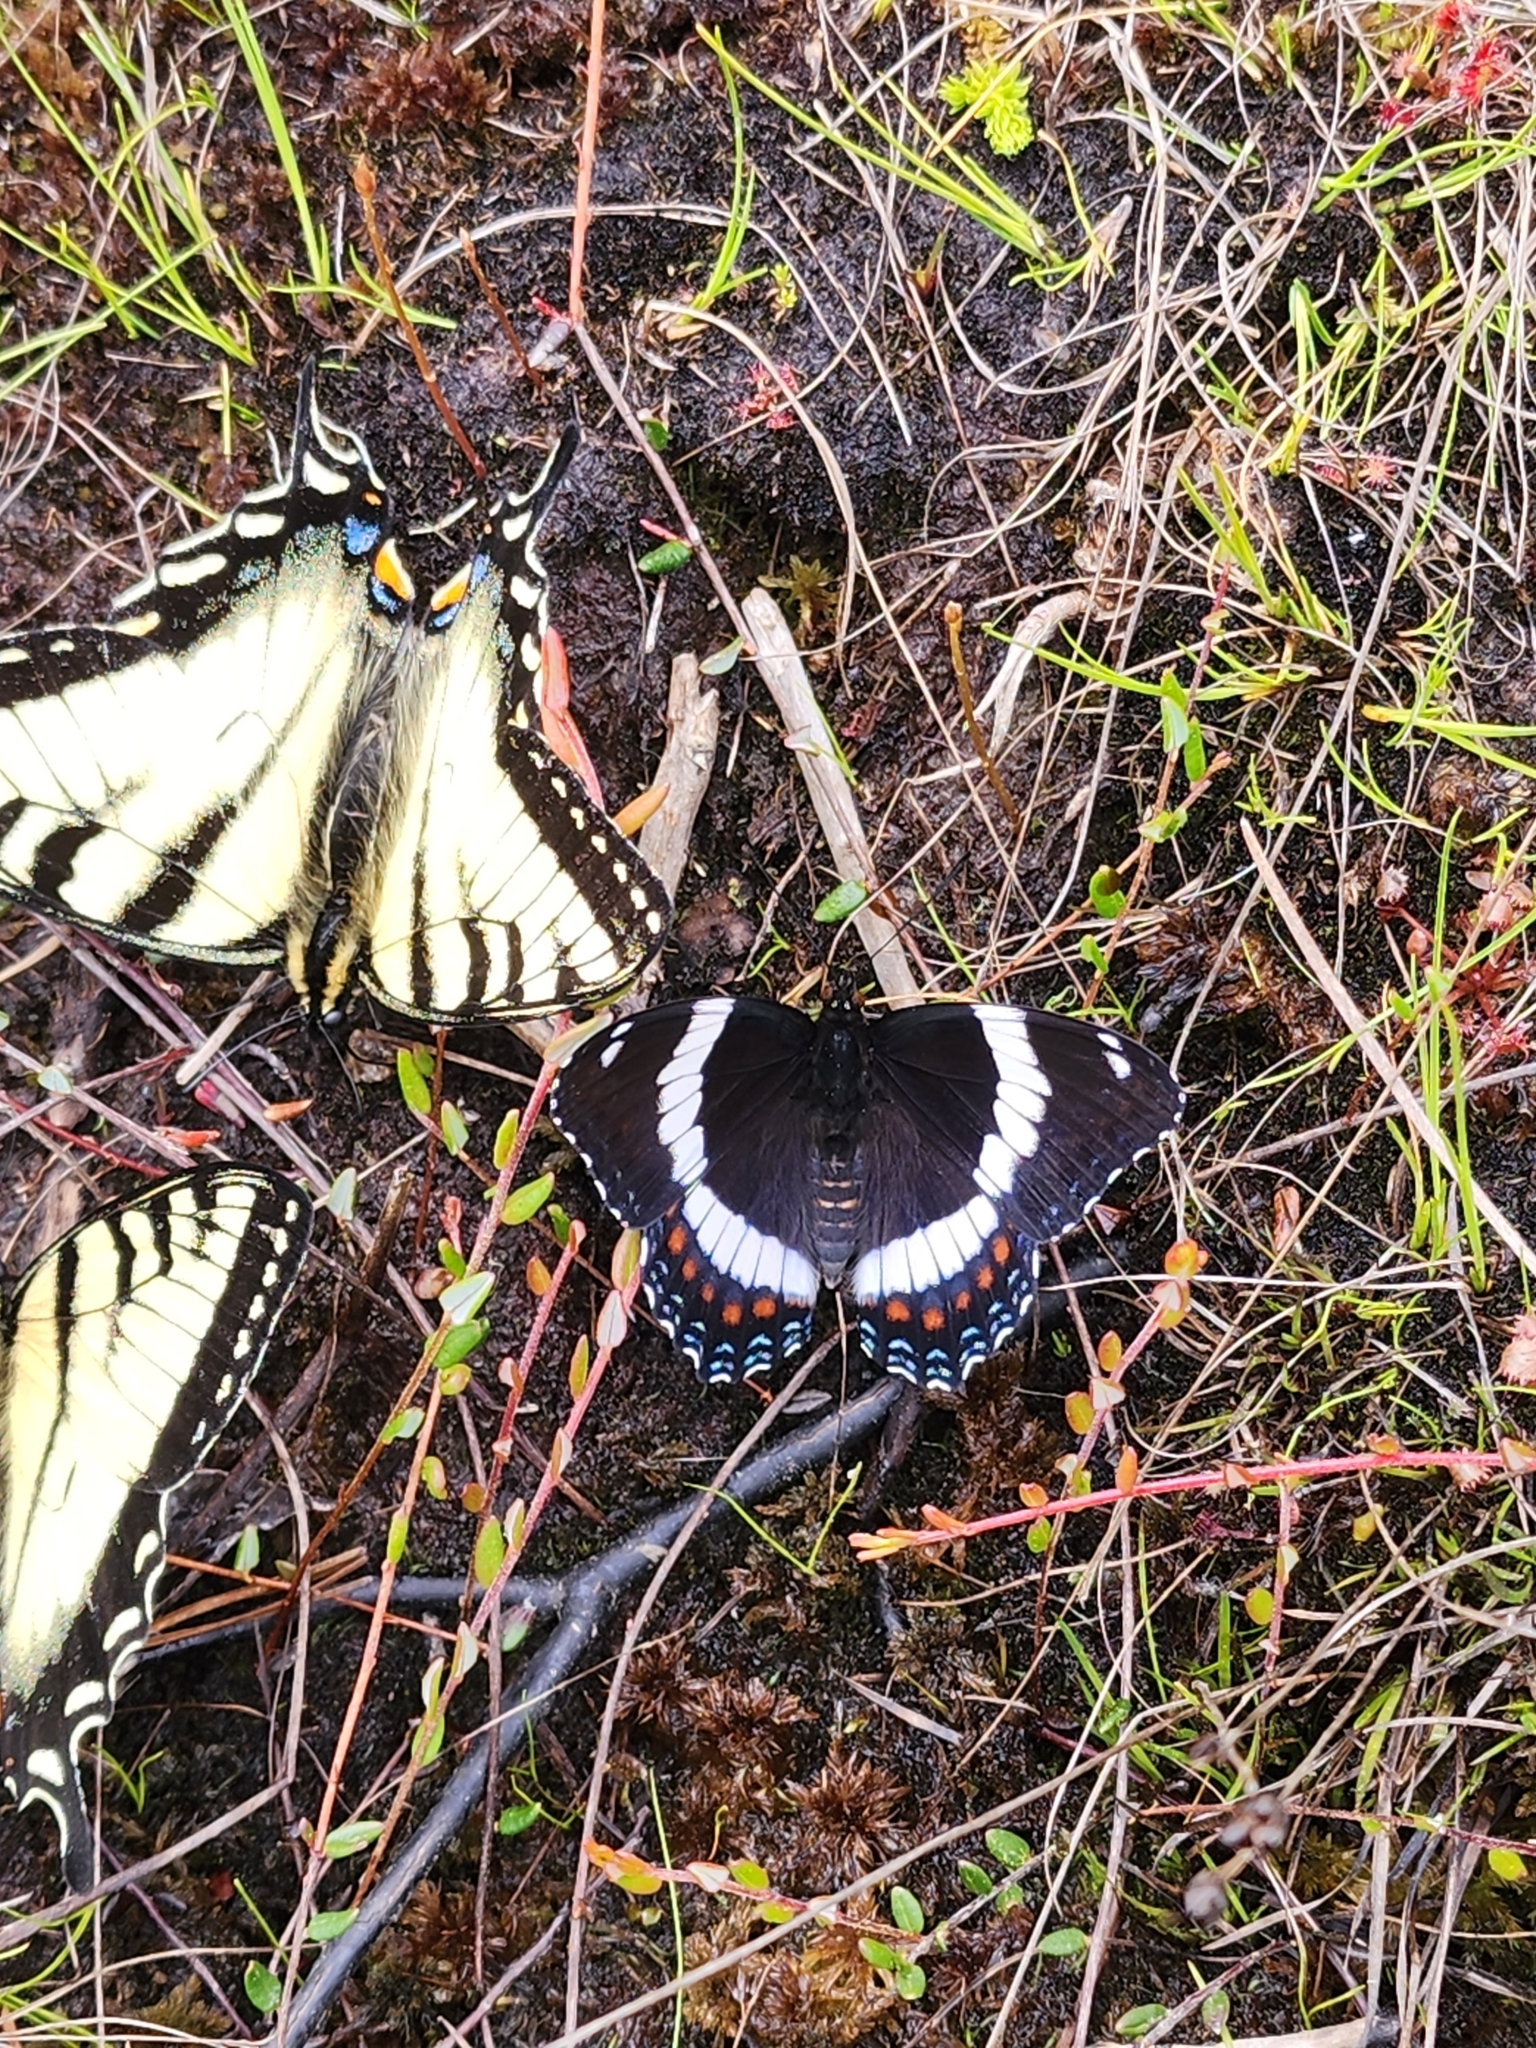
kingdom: Animalia
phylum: Arthropoda
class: Insecta
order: Lepidoptera
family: Nymphalidae
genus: Limenitis
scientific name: Limenitis arthemis
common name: Red-spotted admiral
